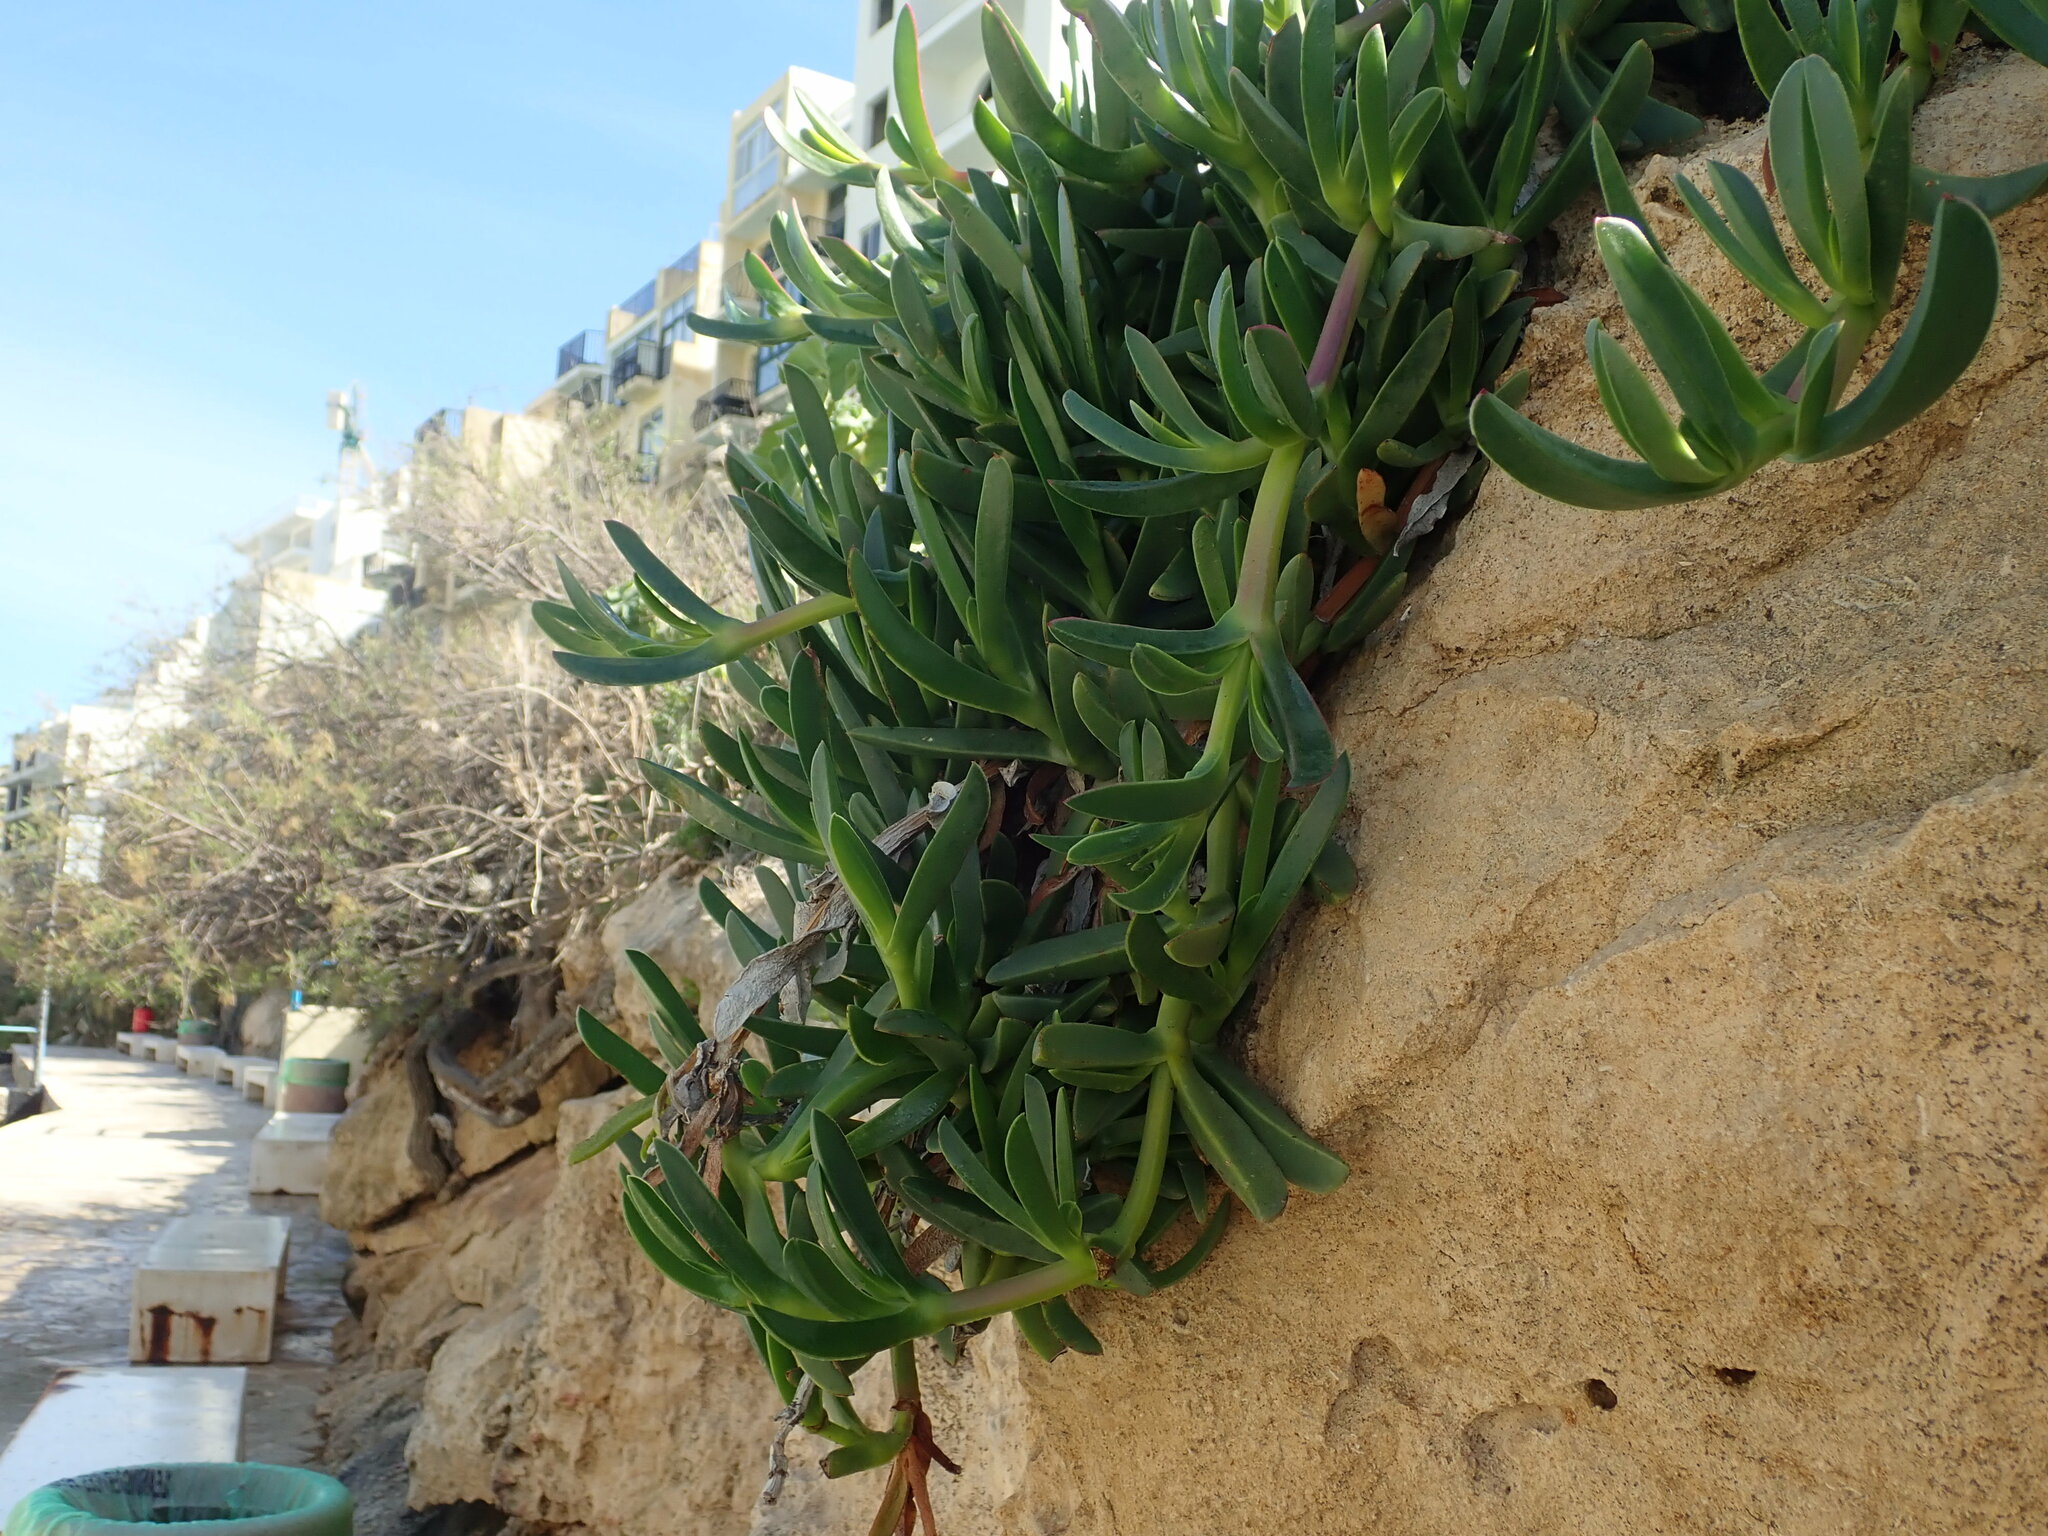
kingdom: Plantae
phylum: Tracheophyta
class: Magnoliopsida
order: Caryophyllales
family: Aizoaceae
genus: Carpobrotus
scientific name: Carpobrotus
